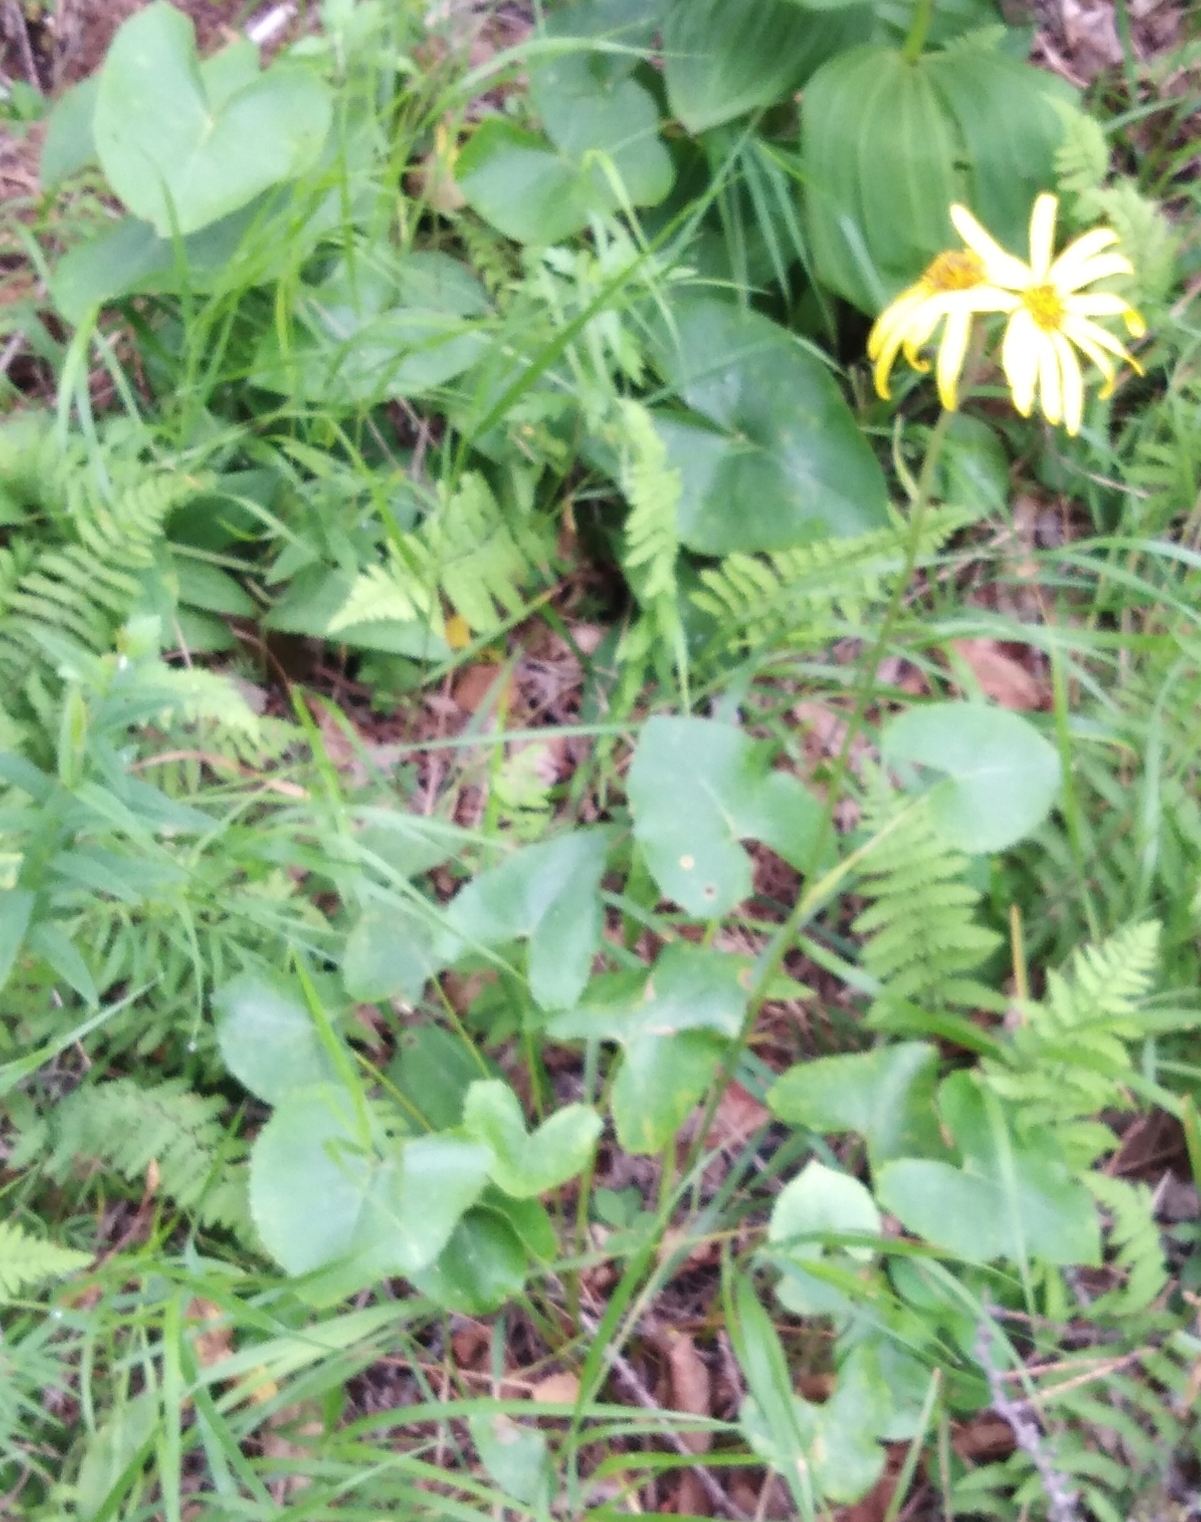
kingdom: Plantae
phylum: Tracheophyta
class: Magnoliopsida
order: Asterales
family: Asteraceae
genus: Ligularia
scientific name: Ligularia calthifolia
